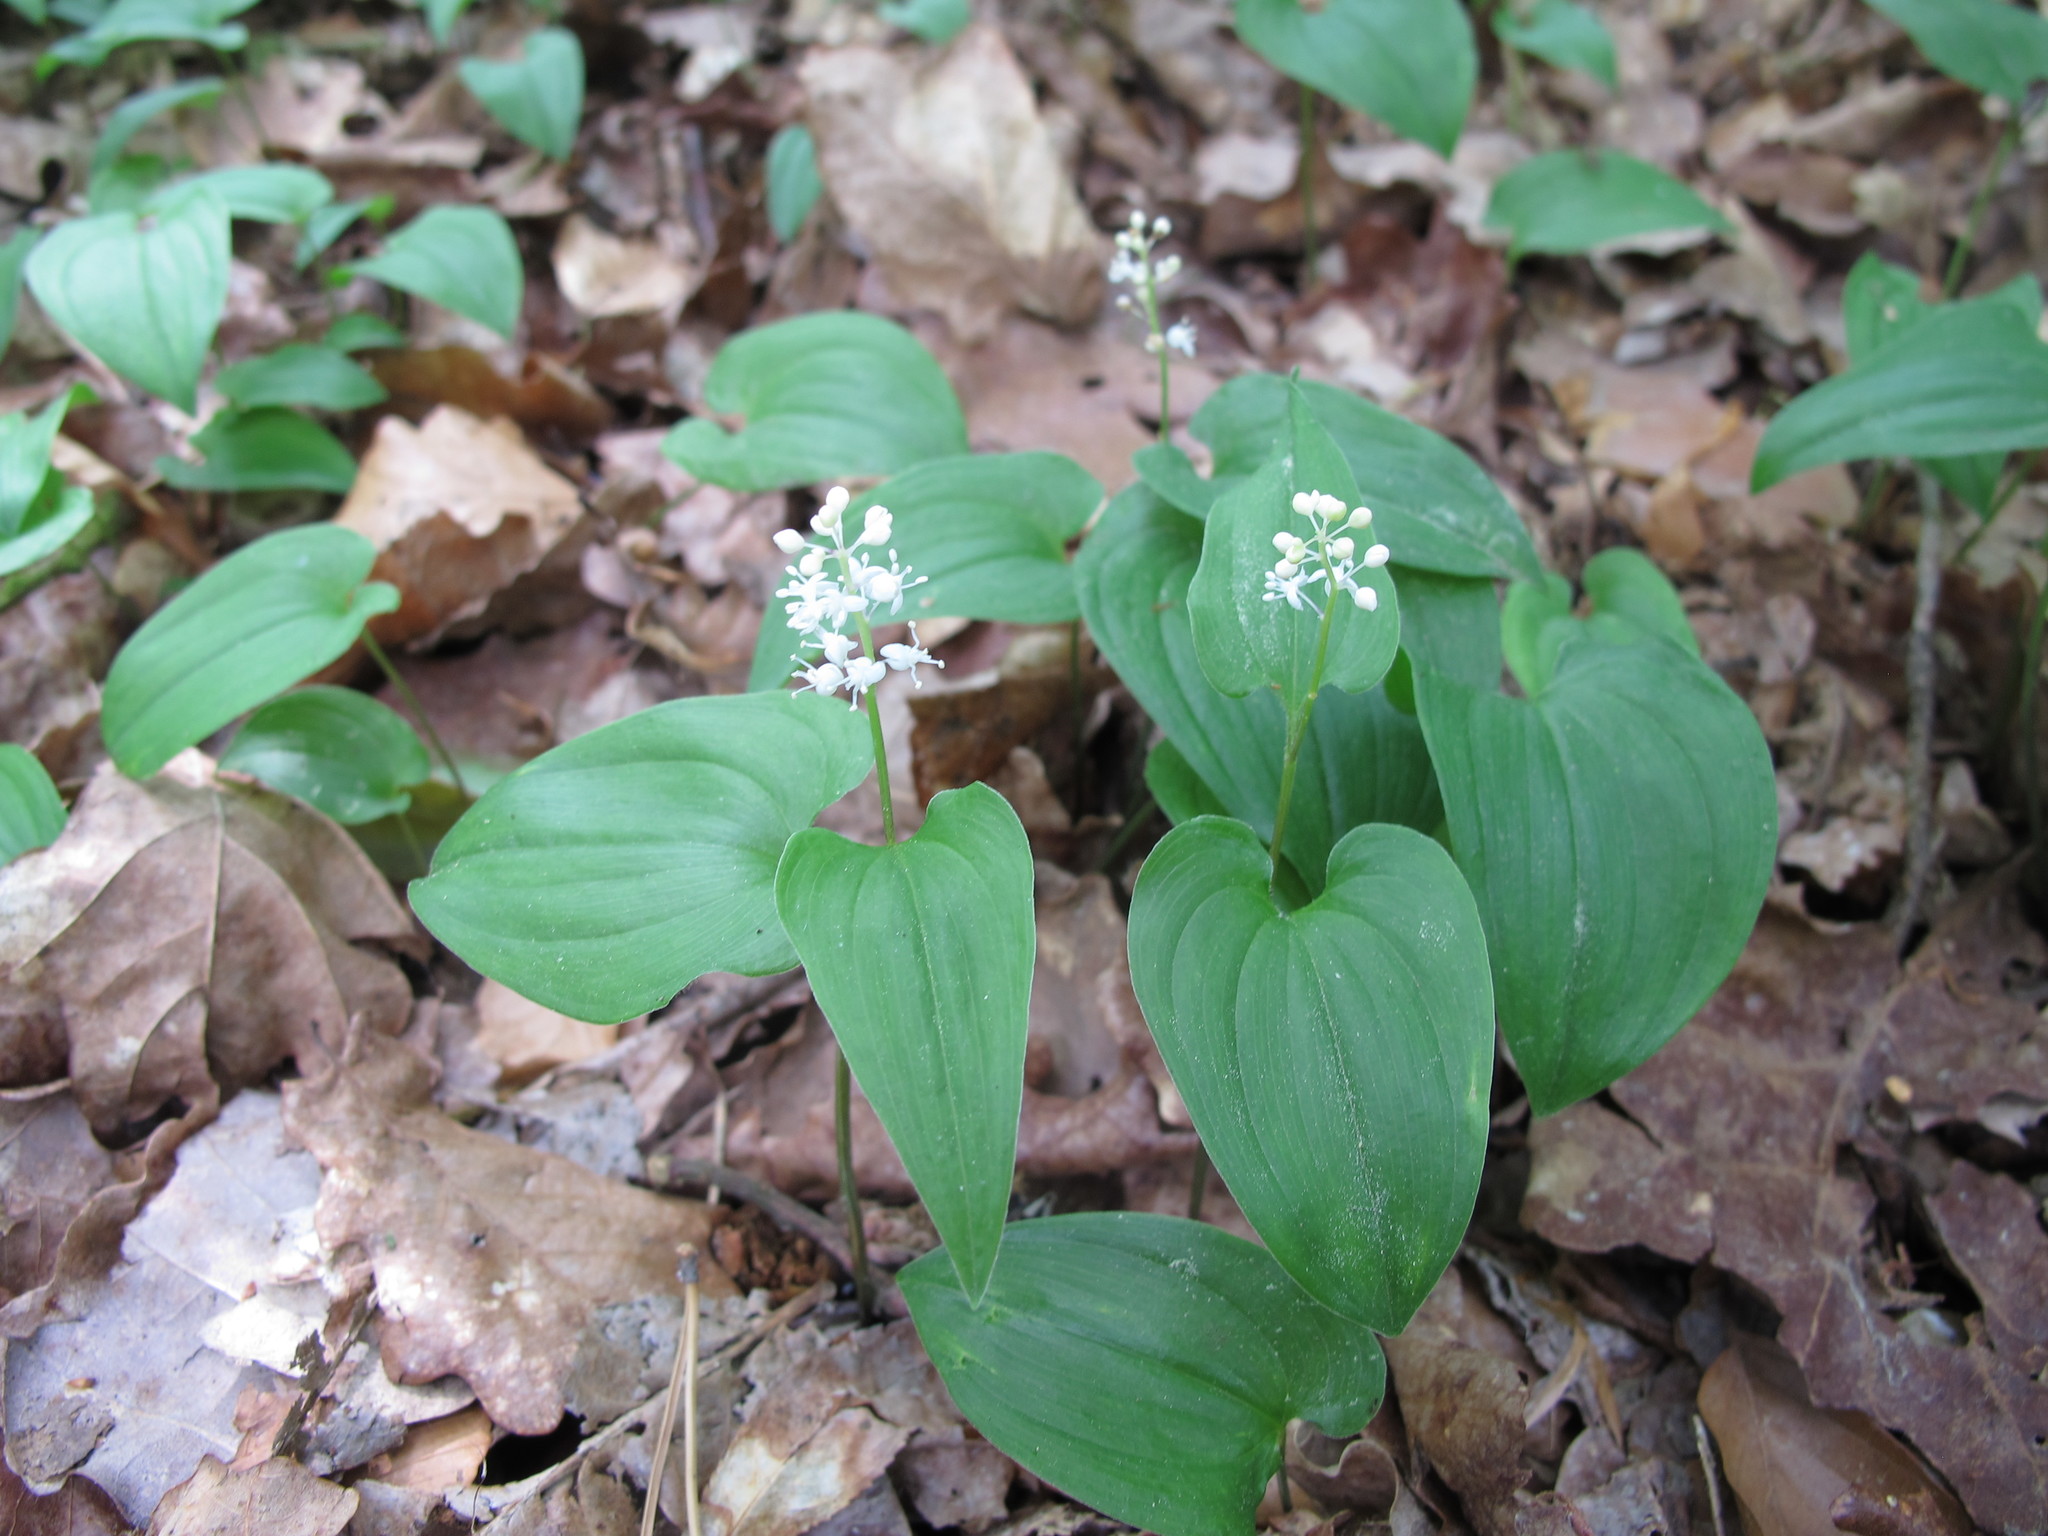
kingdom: Plantae
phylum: Tracheophyta
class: Liliopsida
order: Asparagales
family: Asparagaceae
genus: Maianthemum
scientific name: Maianthemum bifolium
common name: May lily
